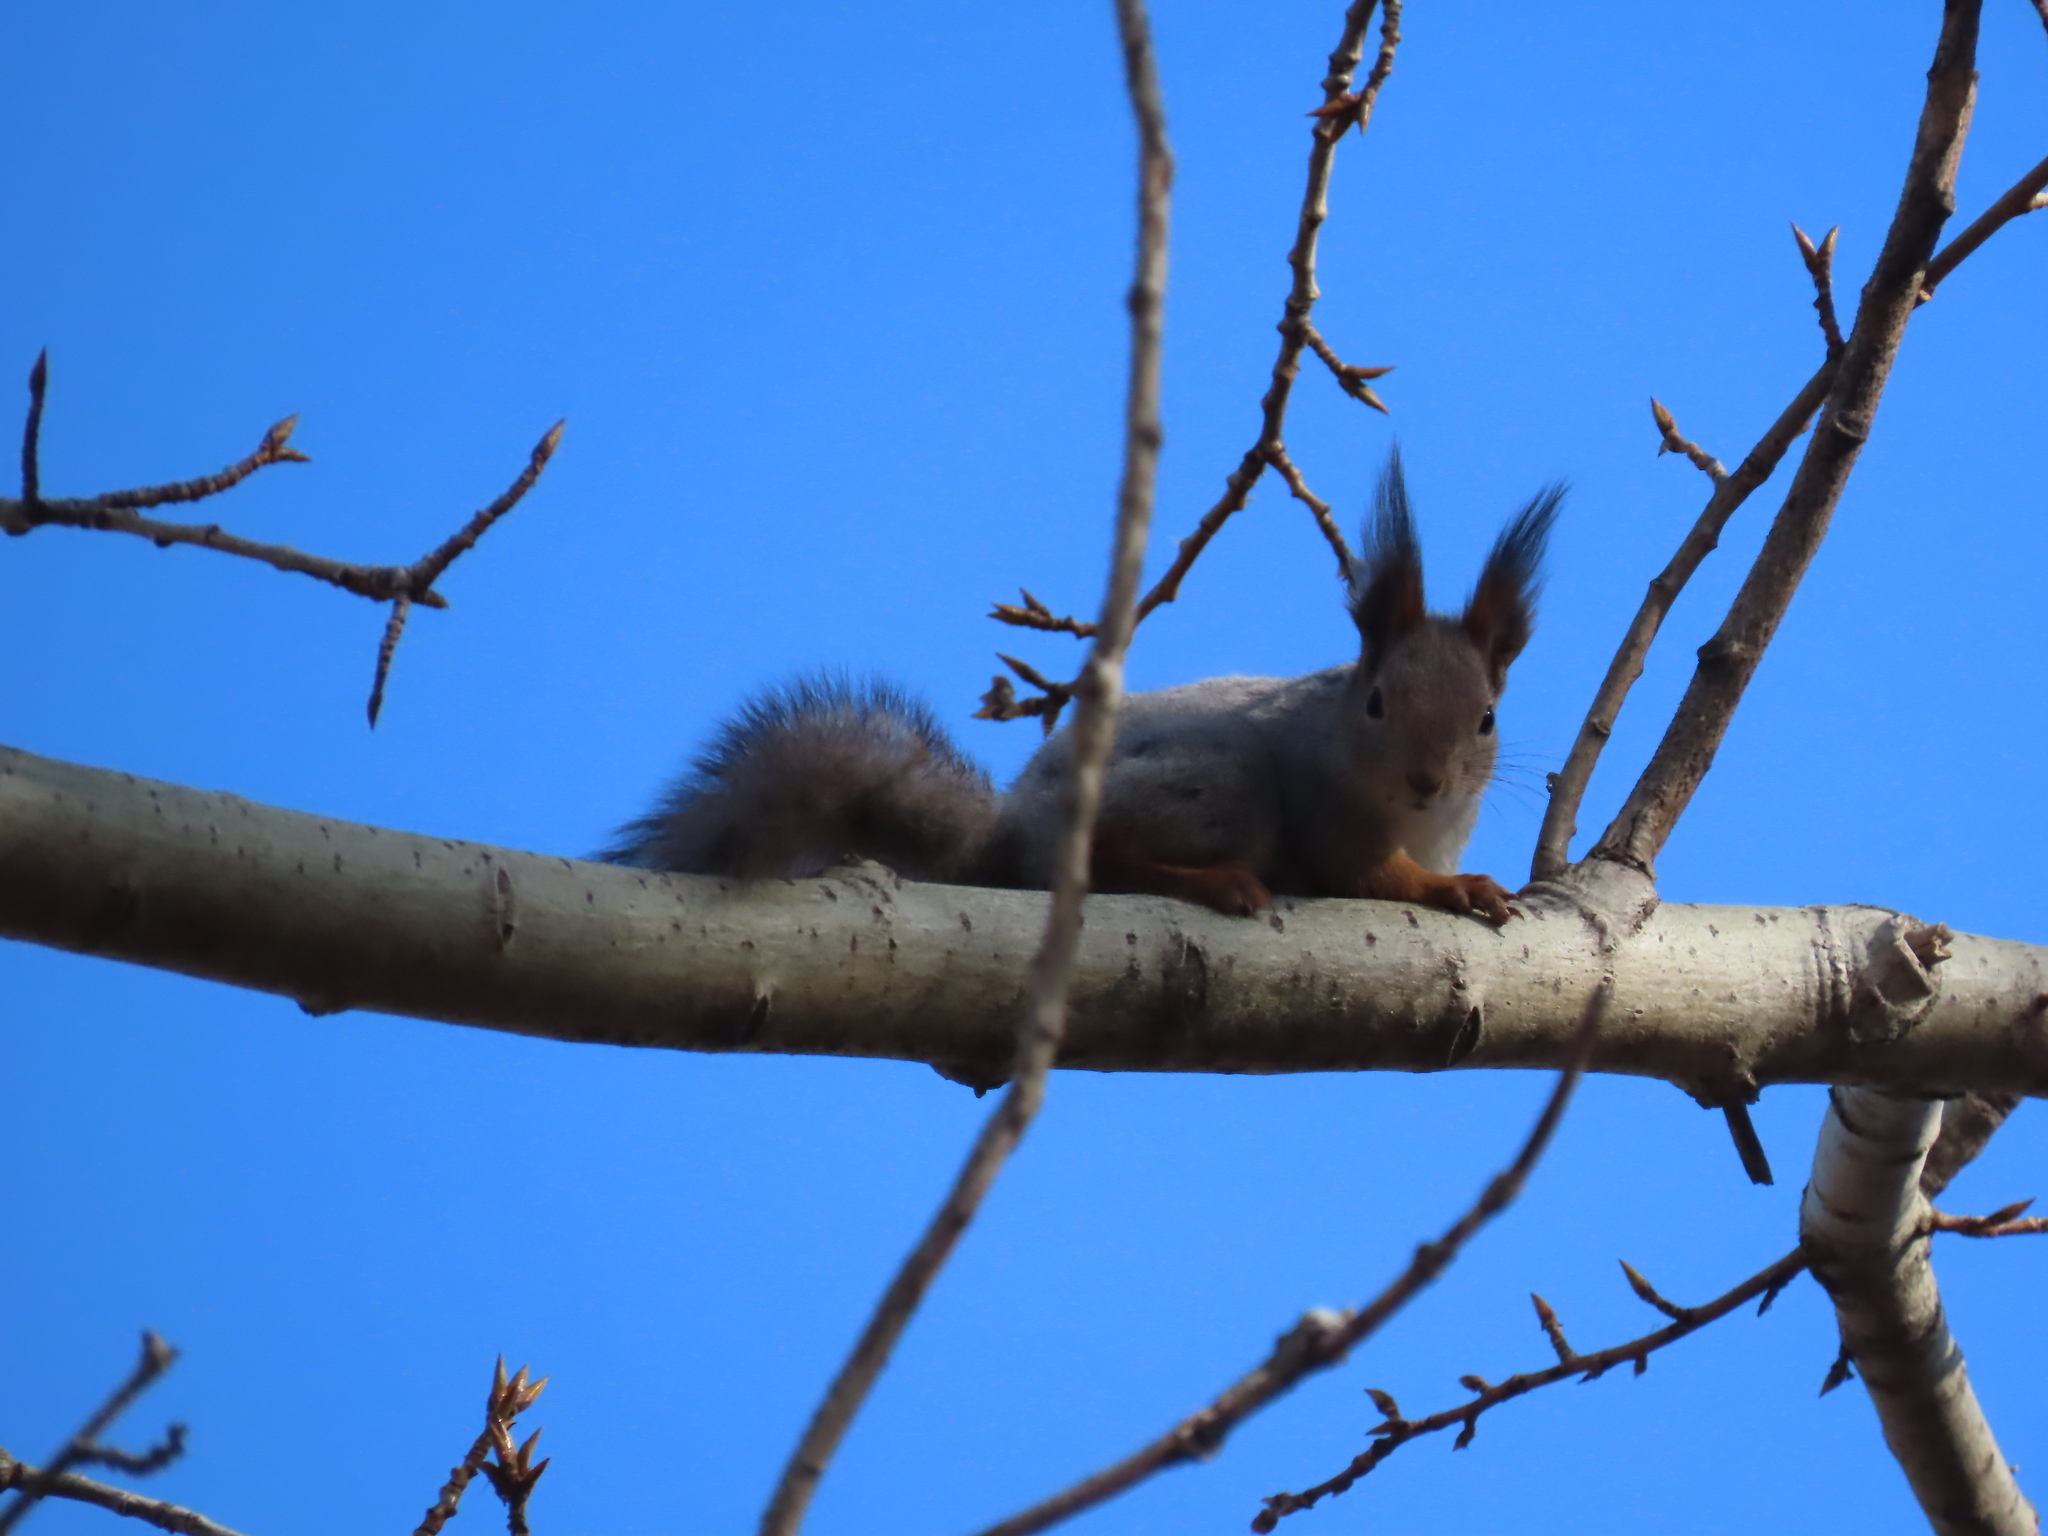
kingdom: Animalia
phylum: Chordata
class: Mammalia
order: Rodentia
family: Sciuridae
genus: Sciurus
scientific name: Sciurus vulgaris
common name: Eurasian red squirrel
